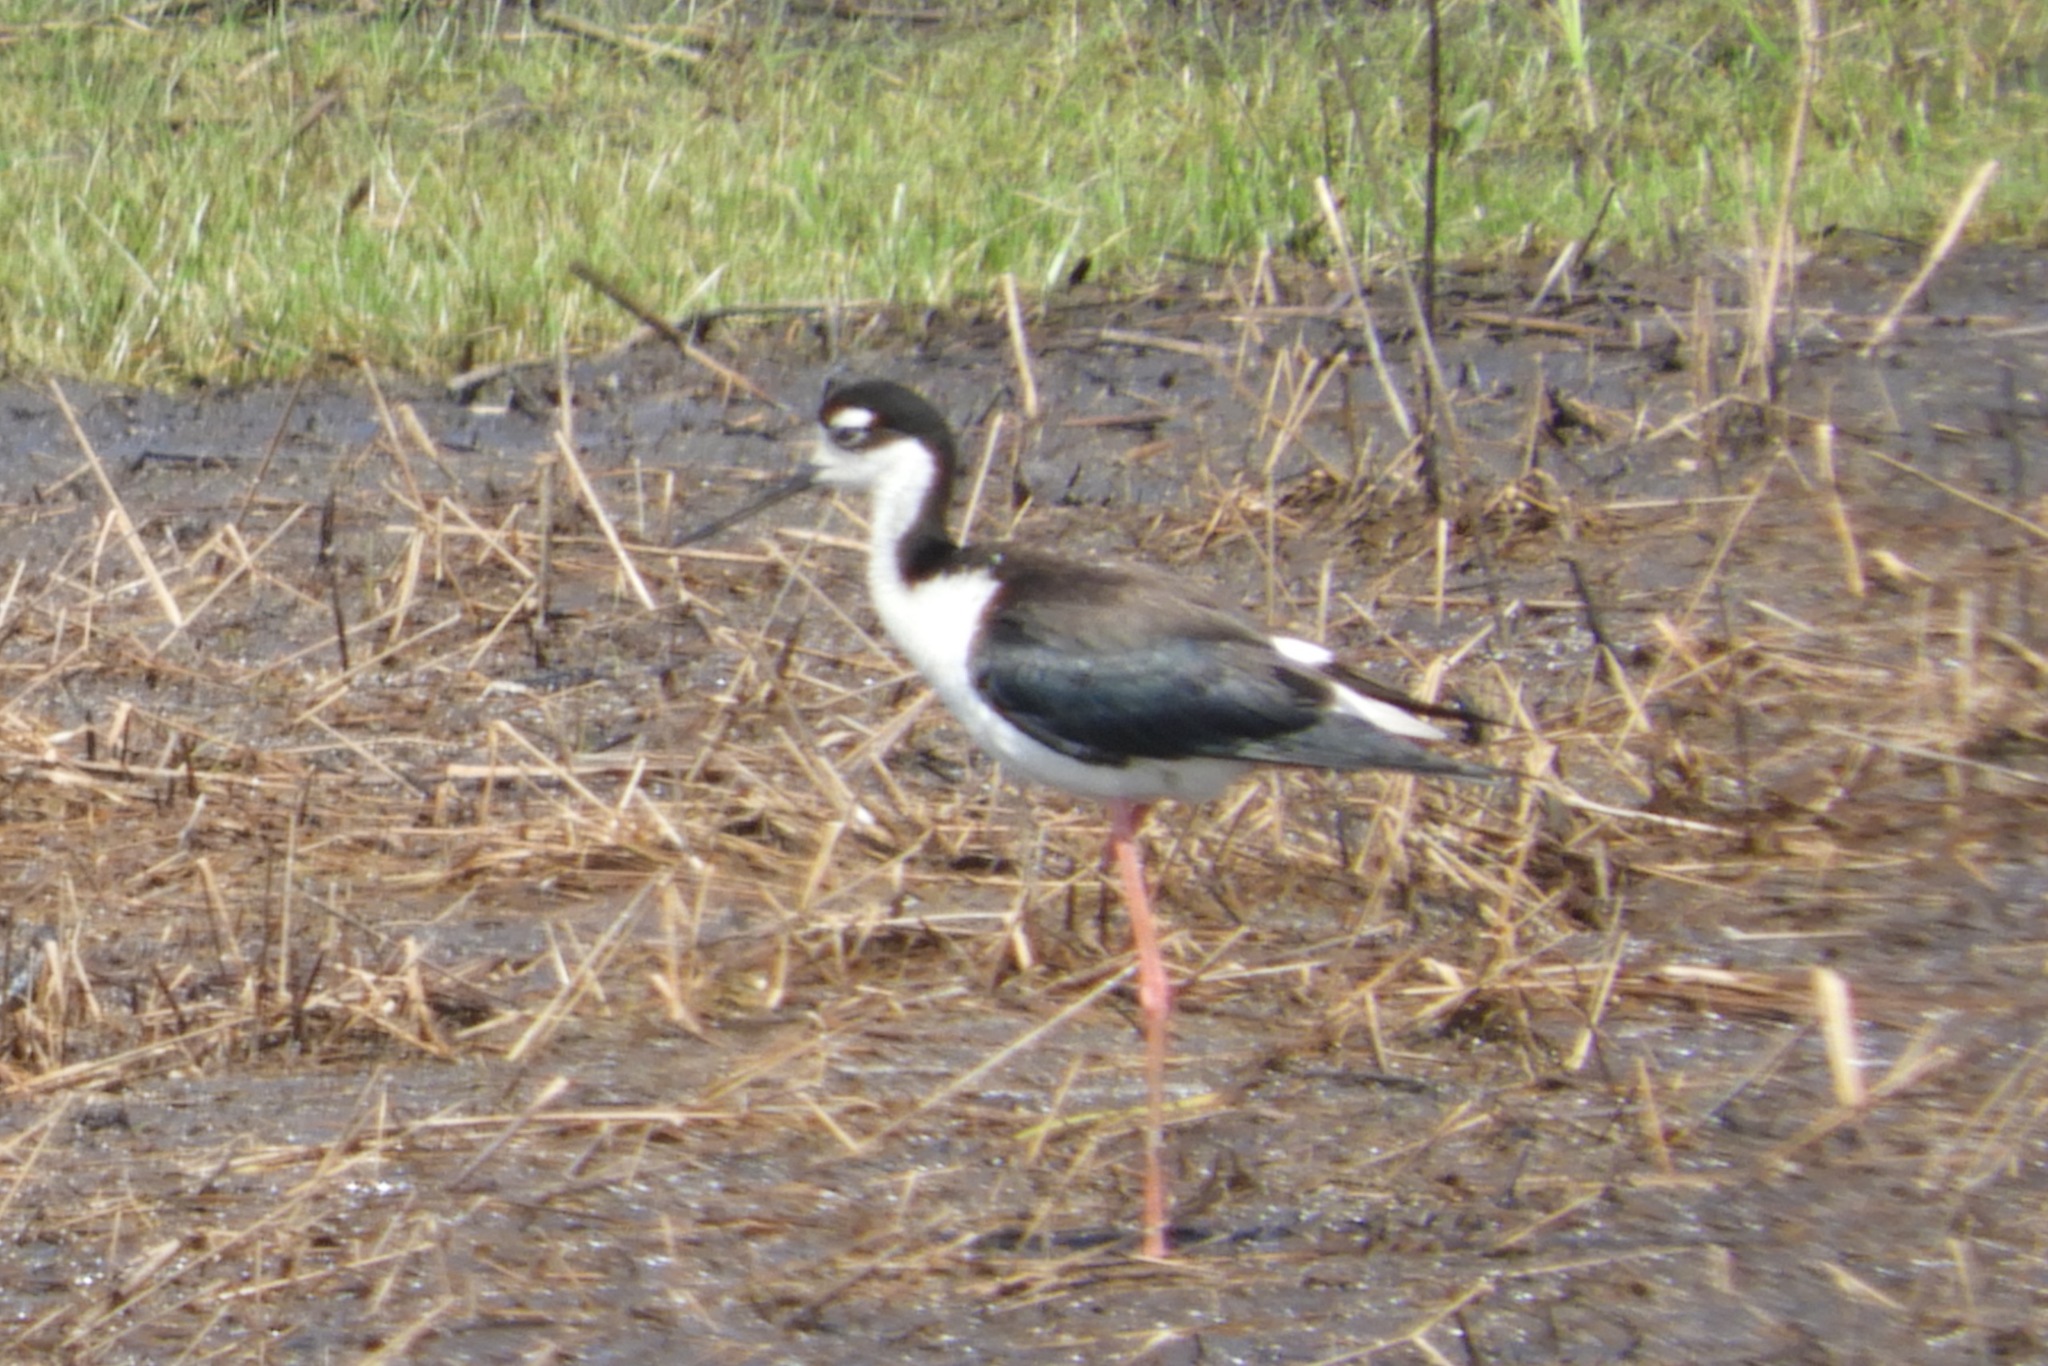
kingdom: Animalia
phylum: Chordata
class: Aves
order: Charadriiformes
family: Recurvirostridae
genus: Himantopus
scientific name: Himantopus mexicanus
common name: Black-necked stilt
